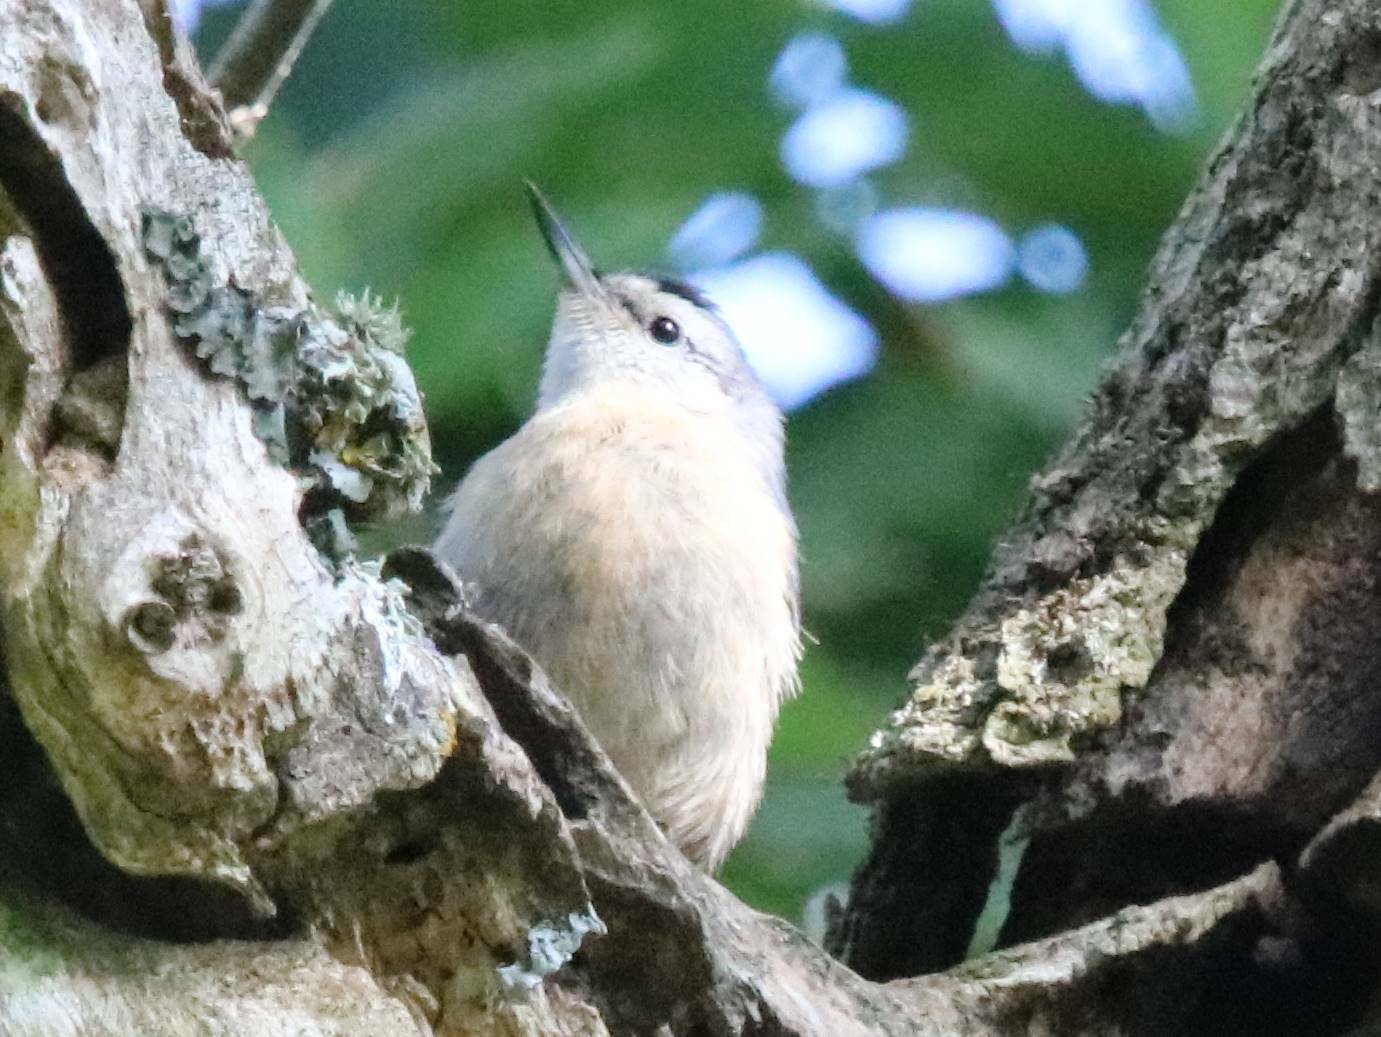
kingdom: Animalia
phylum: Chordata
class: Aves
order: Passeriformes
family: Sittidae
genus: Sitta
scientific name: Sitta ledanti
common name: Algerian nuthatch
